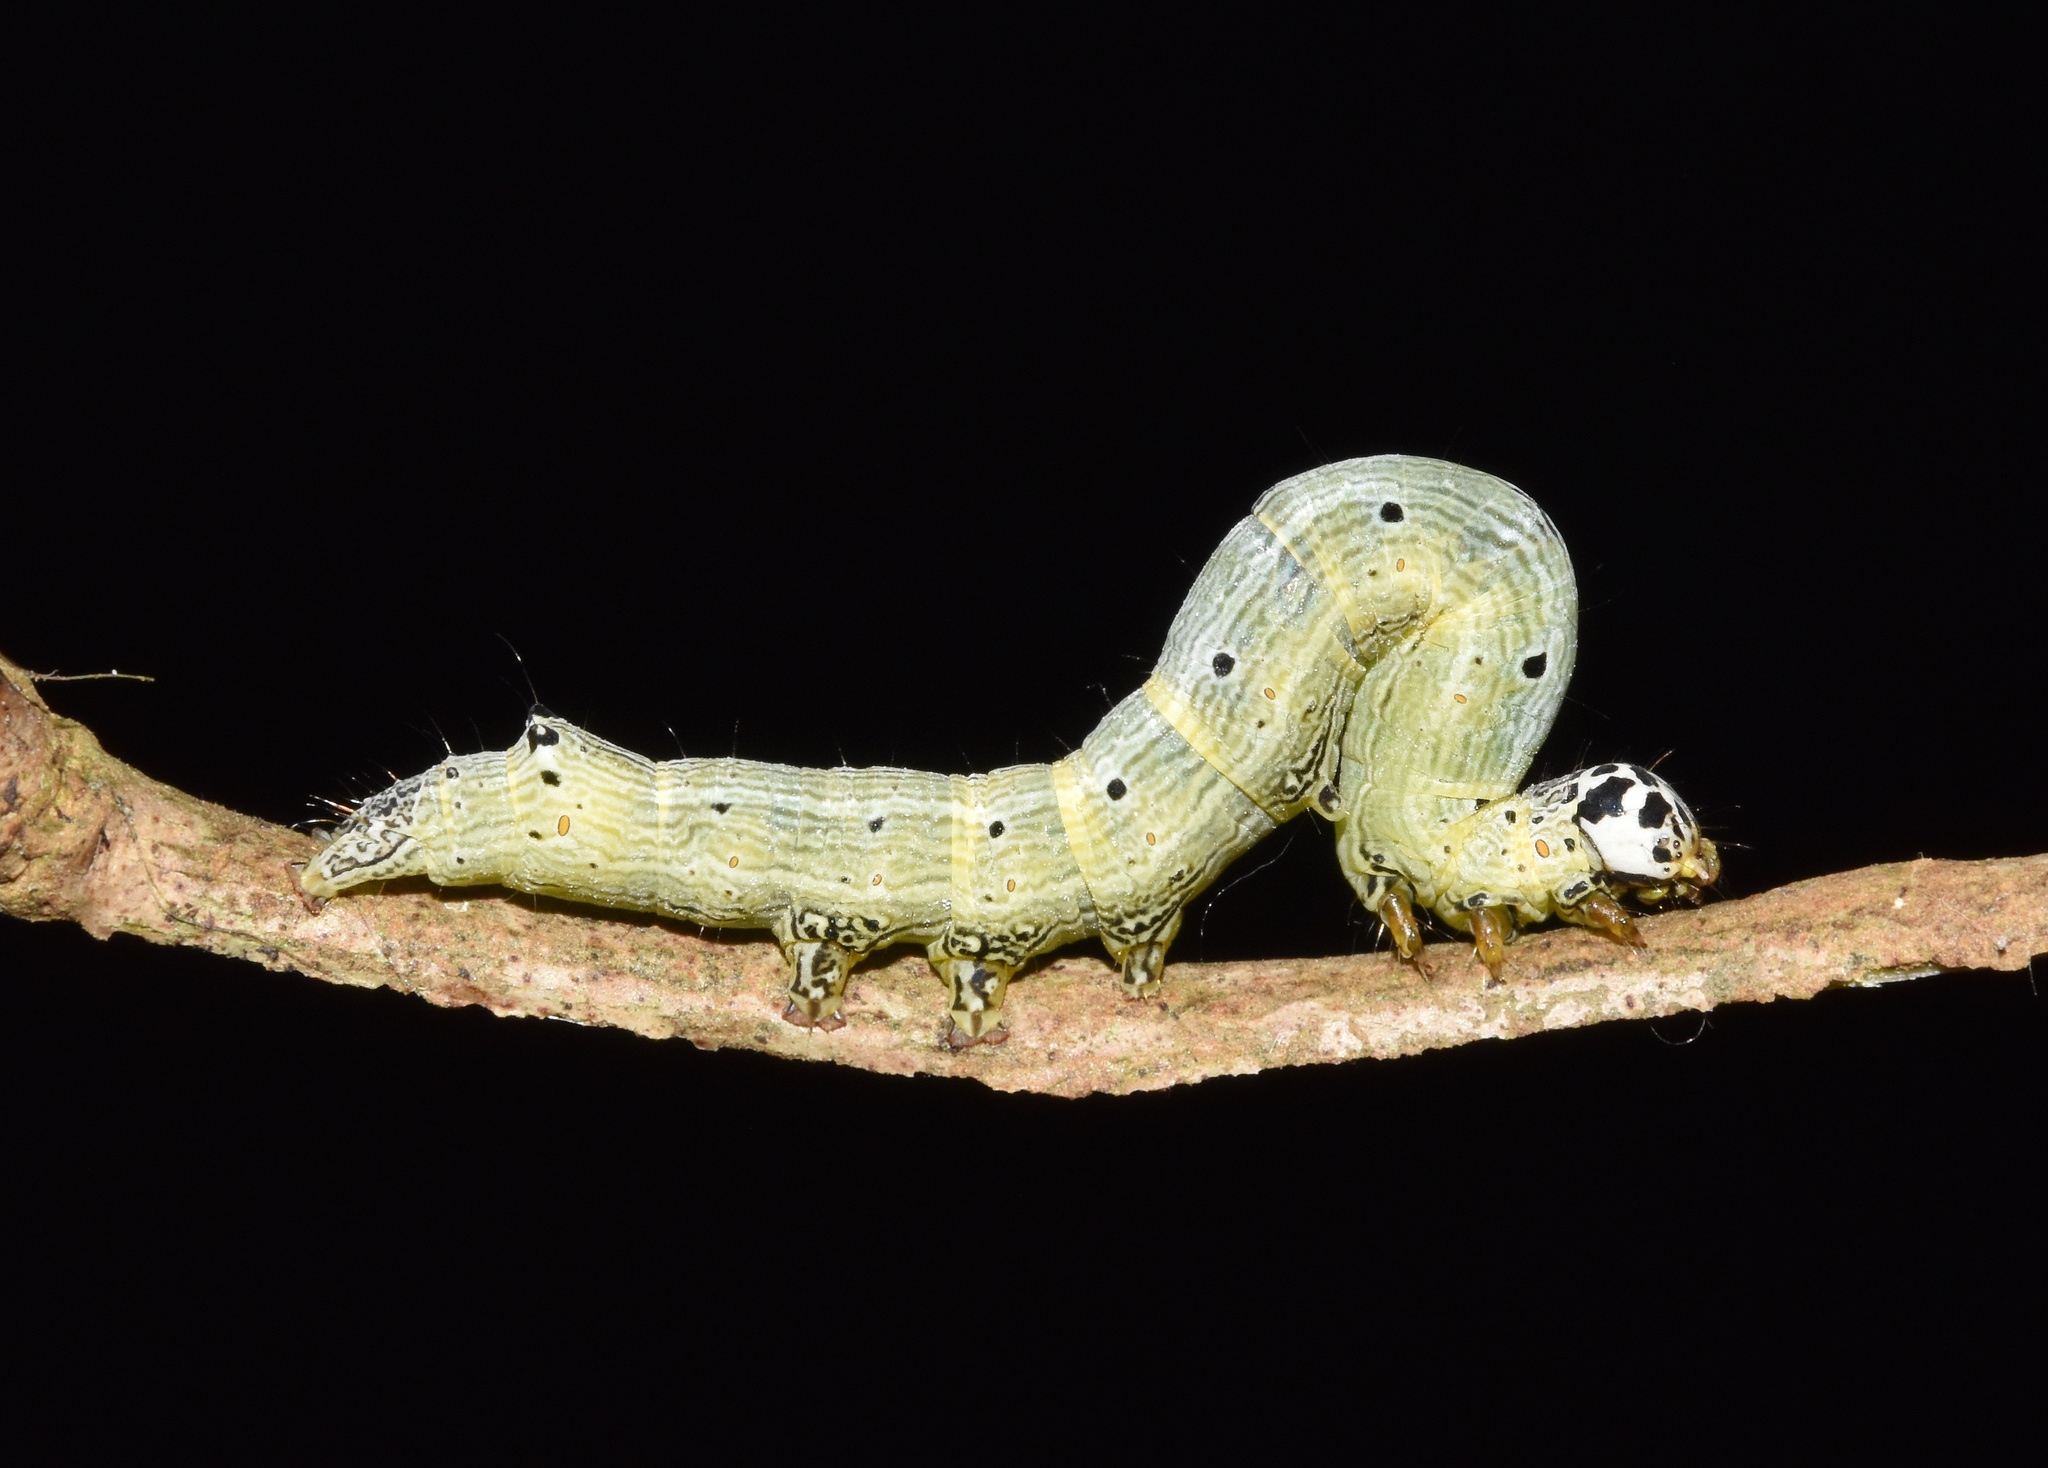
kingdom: Animalia
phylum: Arthropoda
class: Insecta
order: Lepidoptera
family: Erebidae
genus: Achaea
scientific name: Achaea indeterminata
